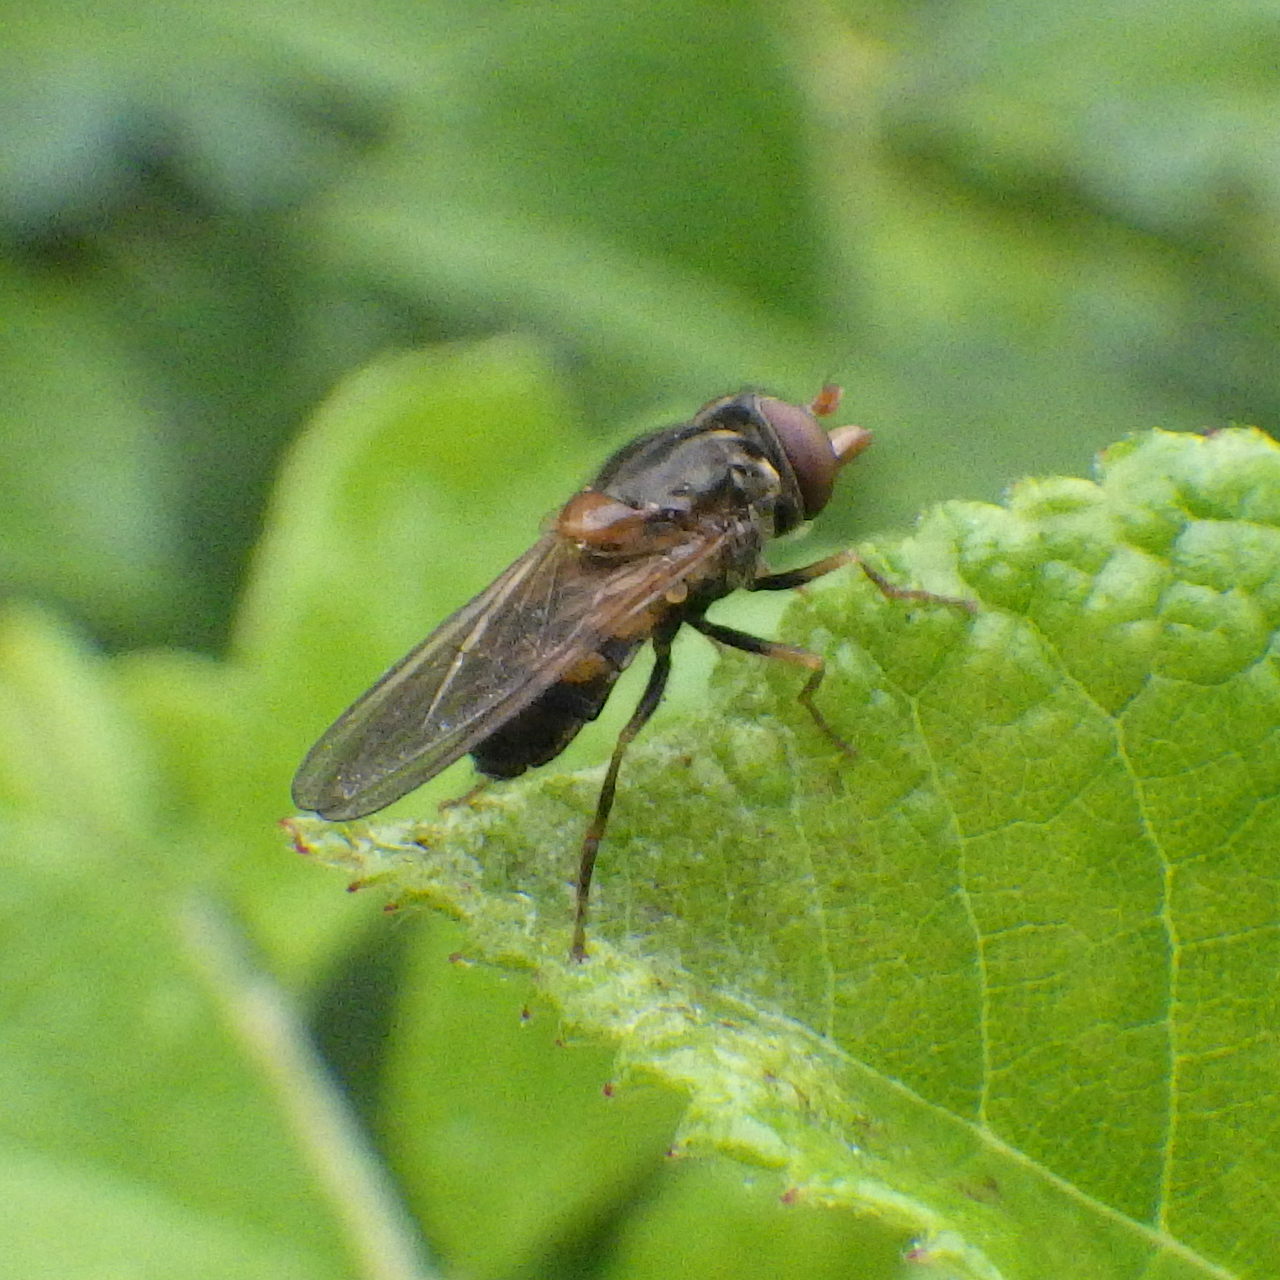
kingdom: Animalia
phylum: Arthropoda
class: Insecta
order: Diptera
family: Syrphidae
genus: Rhingia
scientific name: Rhingia nasica
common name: American snout fly
